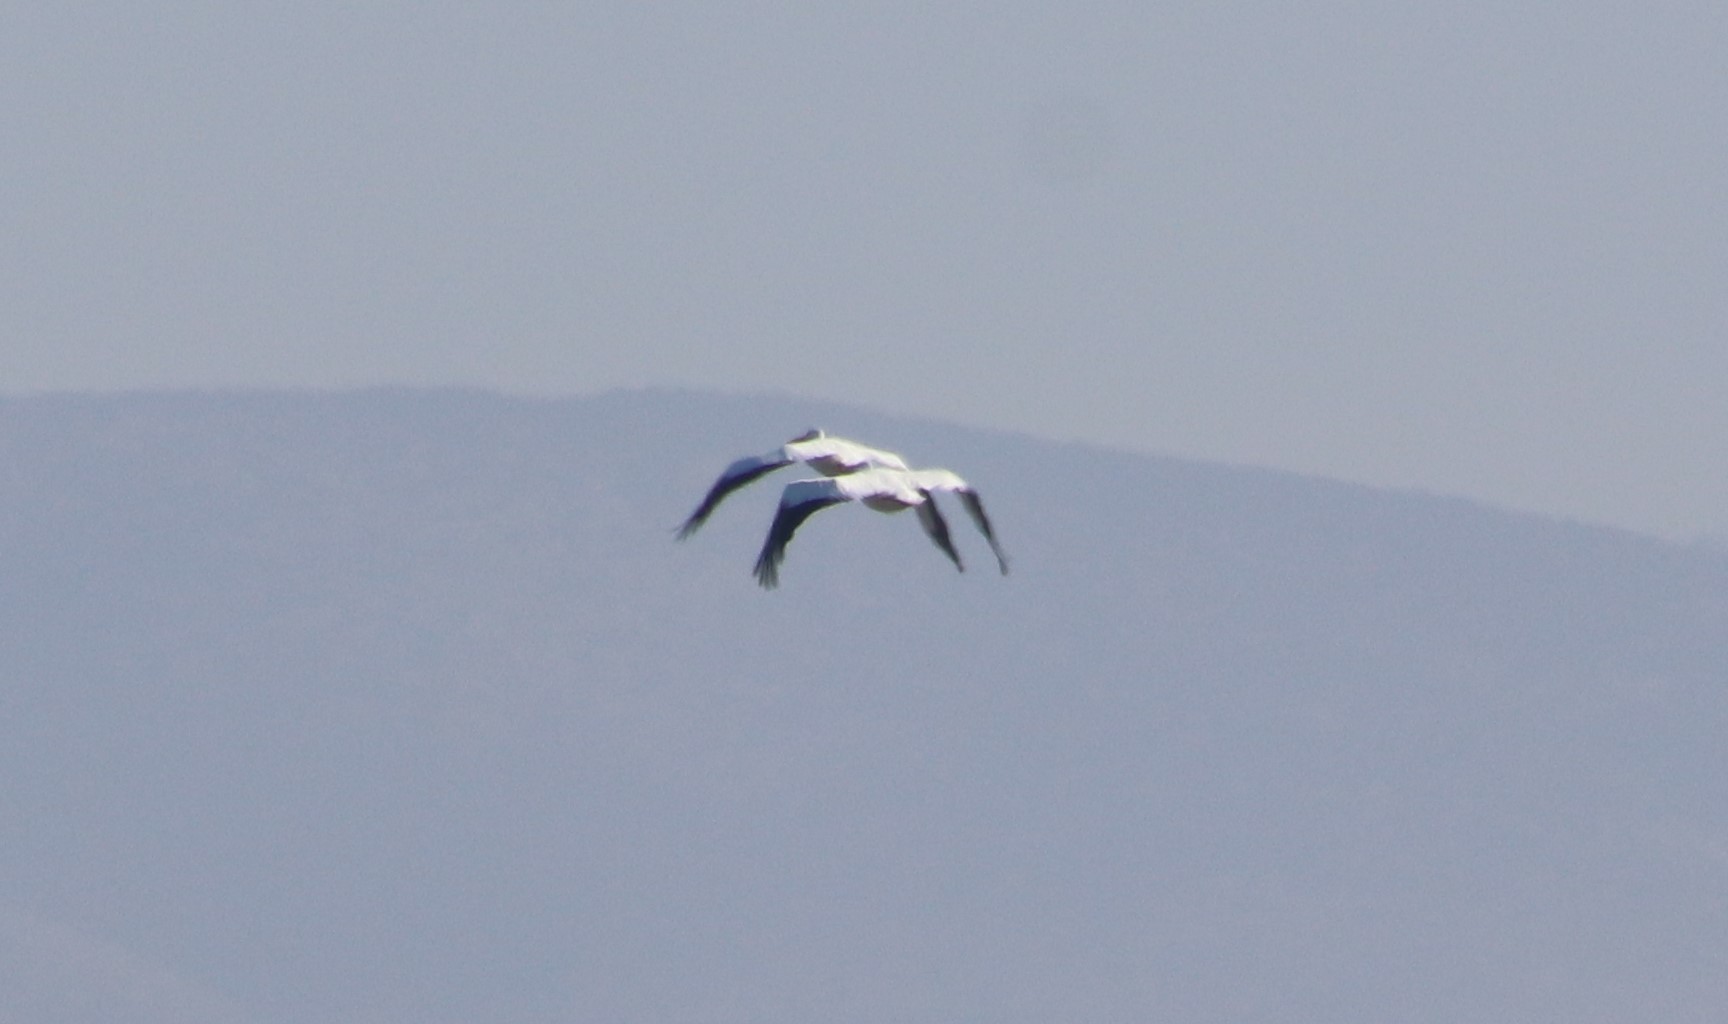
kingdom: Animalia
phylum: Chordata
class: Aves
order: Pelecaniformes
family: Pelecanidae
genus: Pelecanus
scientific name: Pelecanus erythrorhynchos
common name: American white pelican
